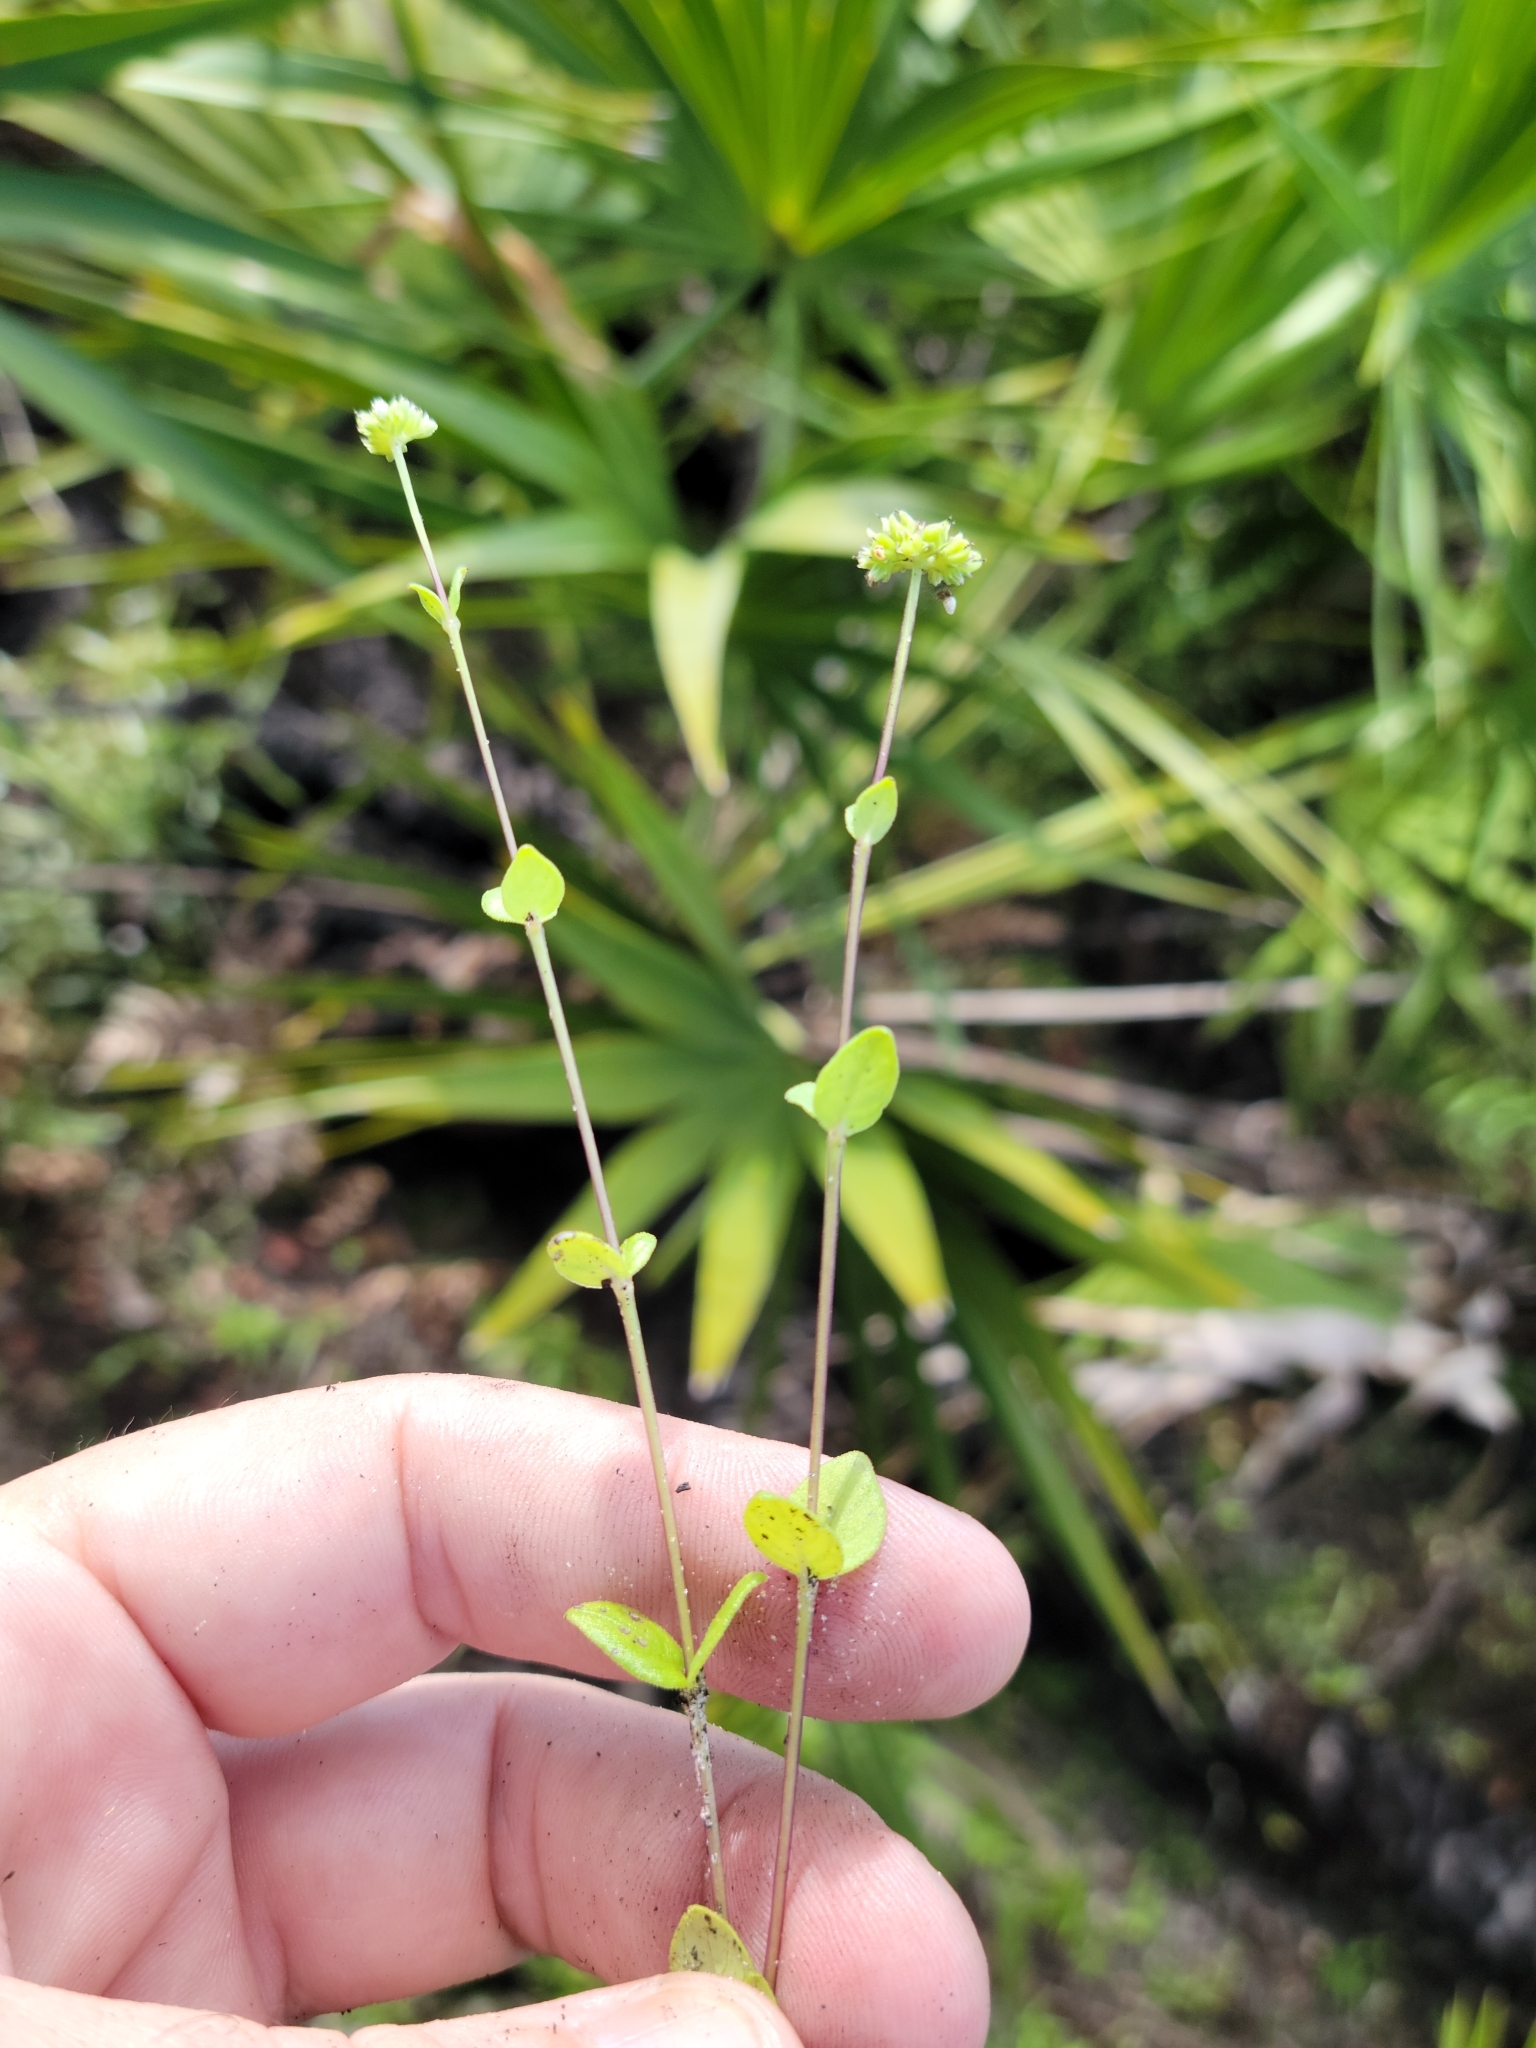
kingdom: Plantae
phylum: Tracheophyta
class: Magnoliopsida
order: Gentianales
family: Loganiaceae
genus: Mitreola
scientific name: Mitreola sessilifolia
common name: Swamp hornpod
